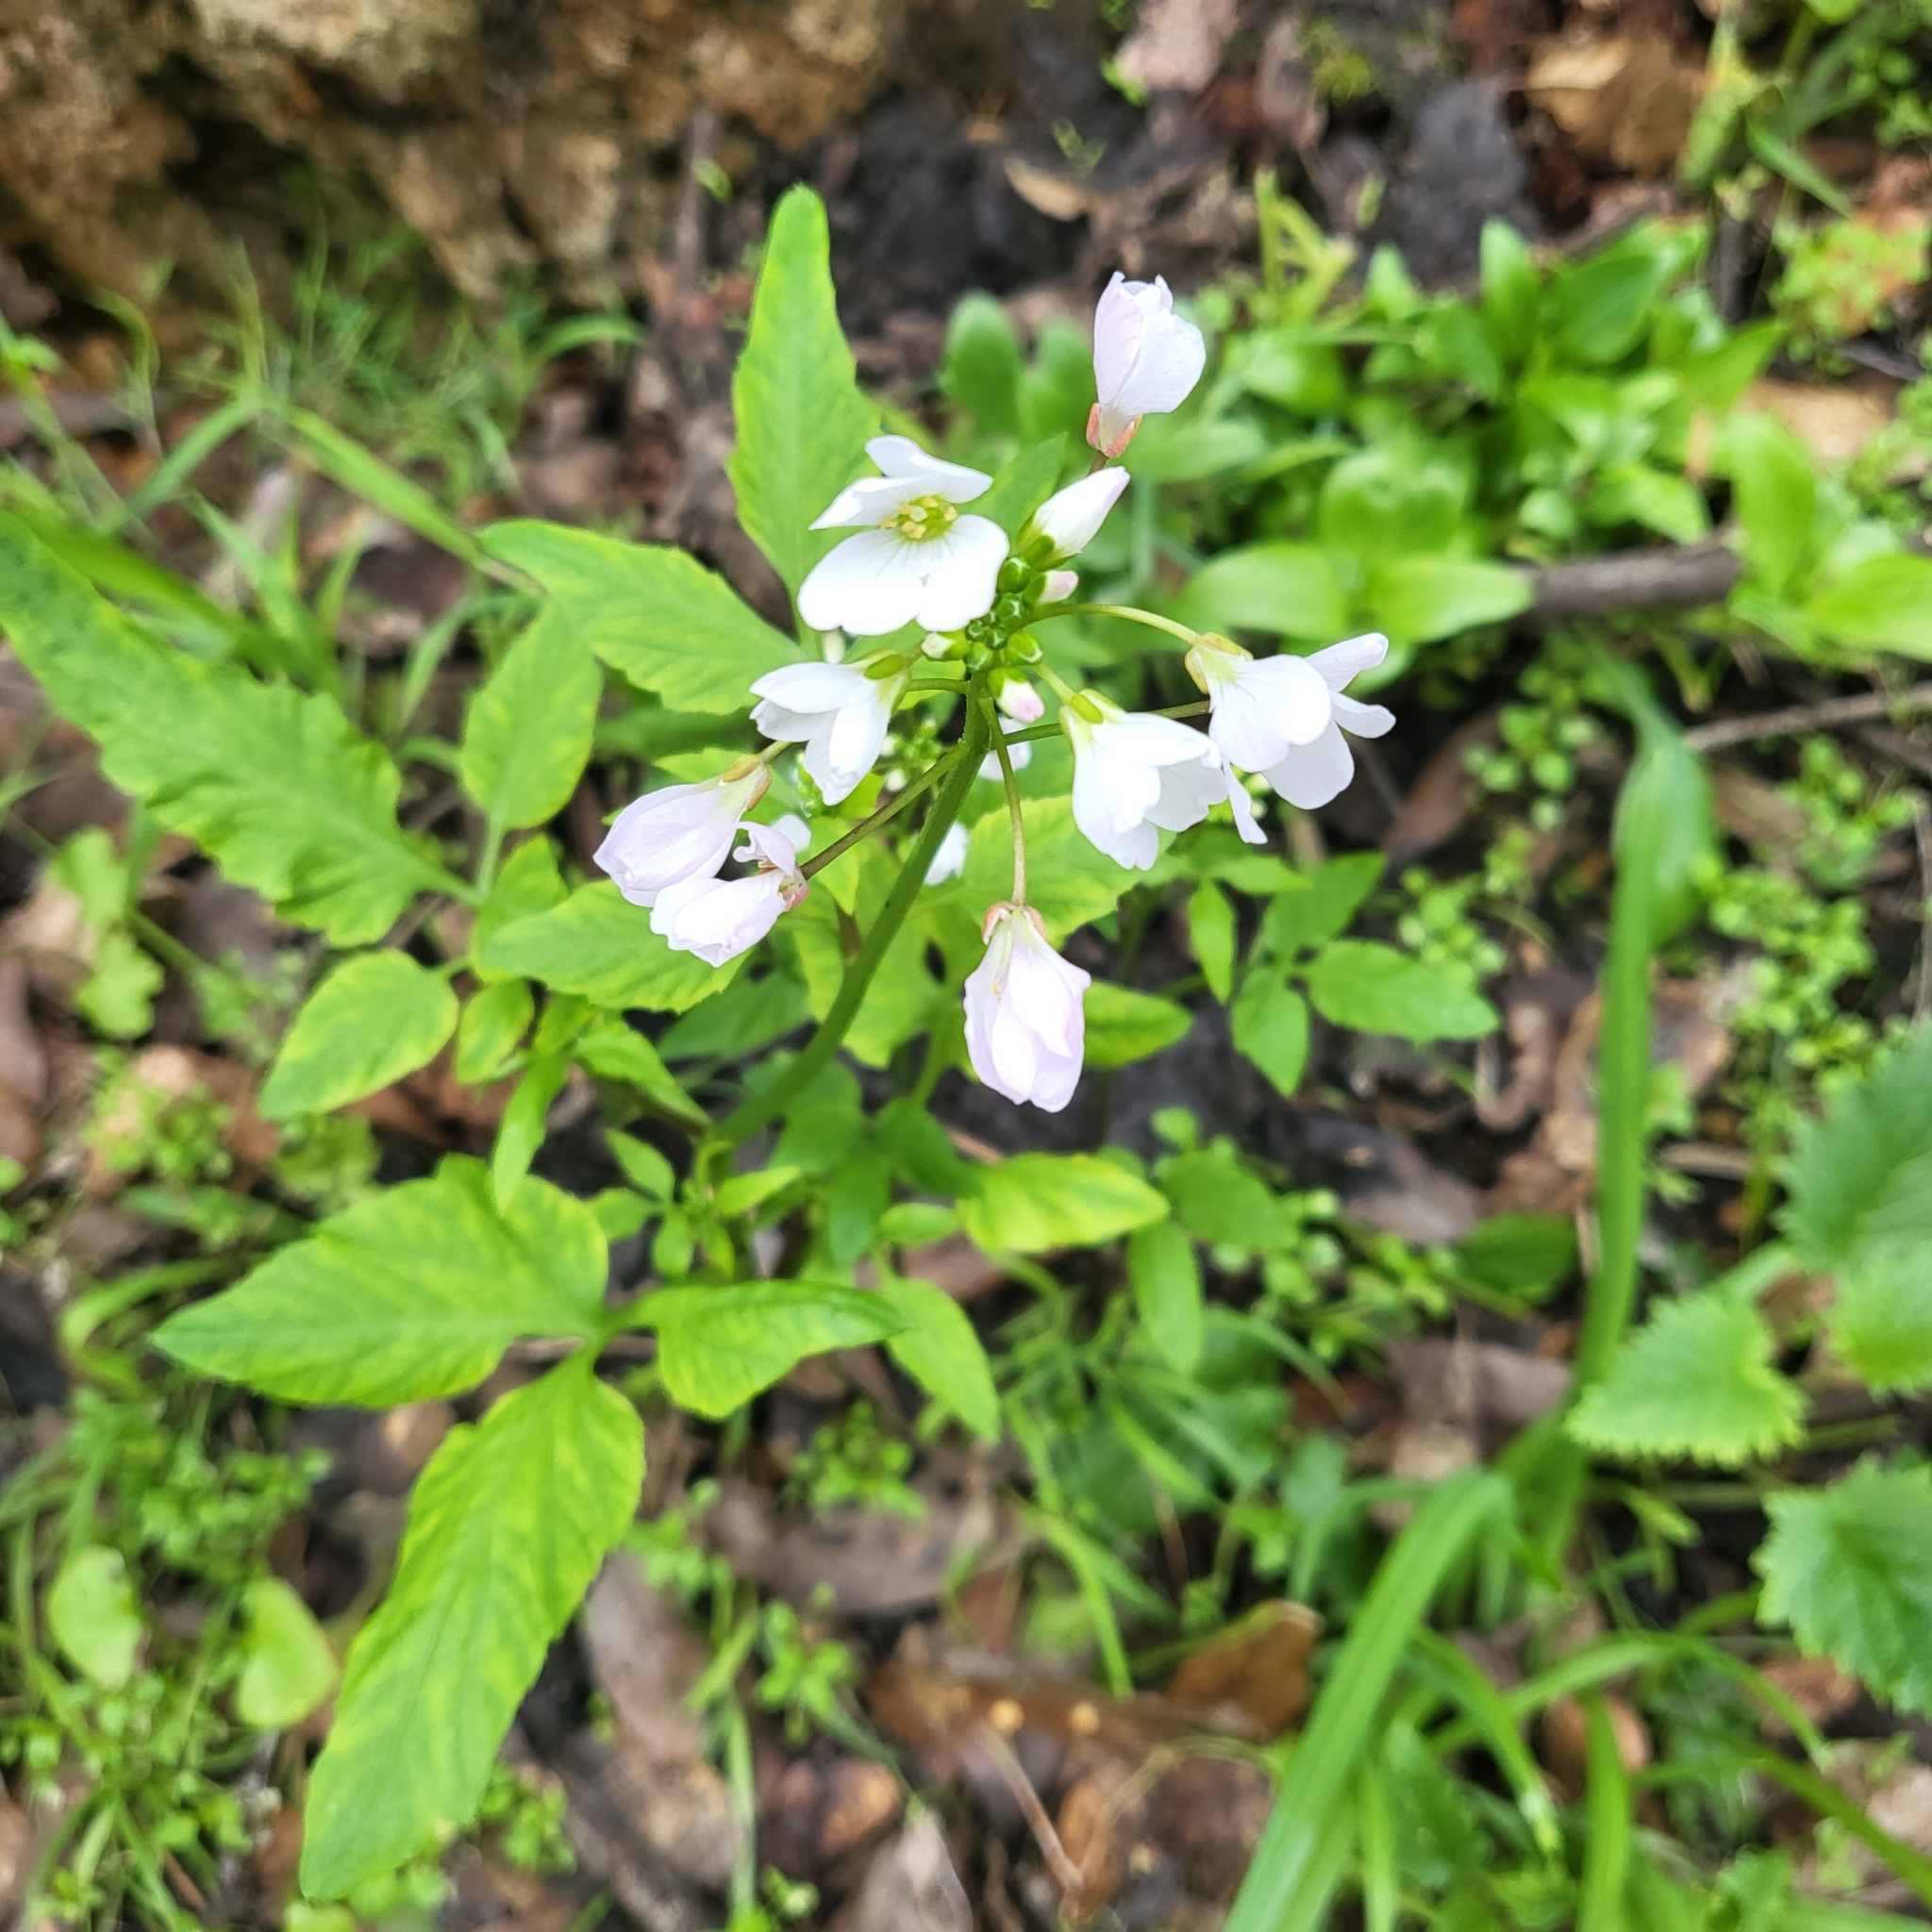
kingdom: Plantae
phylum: Tracheophyta
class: Magnoliopsida
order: Brassicales
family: Brassicaceae
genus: Cardamine
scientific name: Cardamine californica
